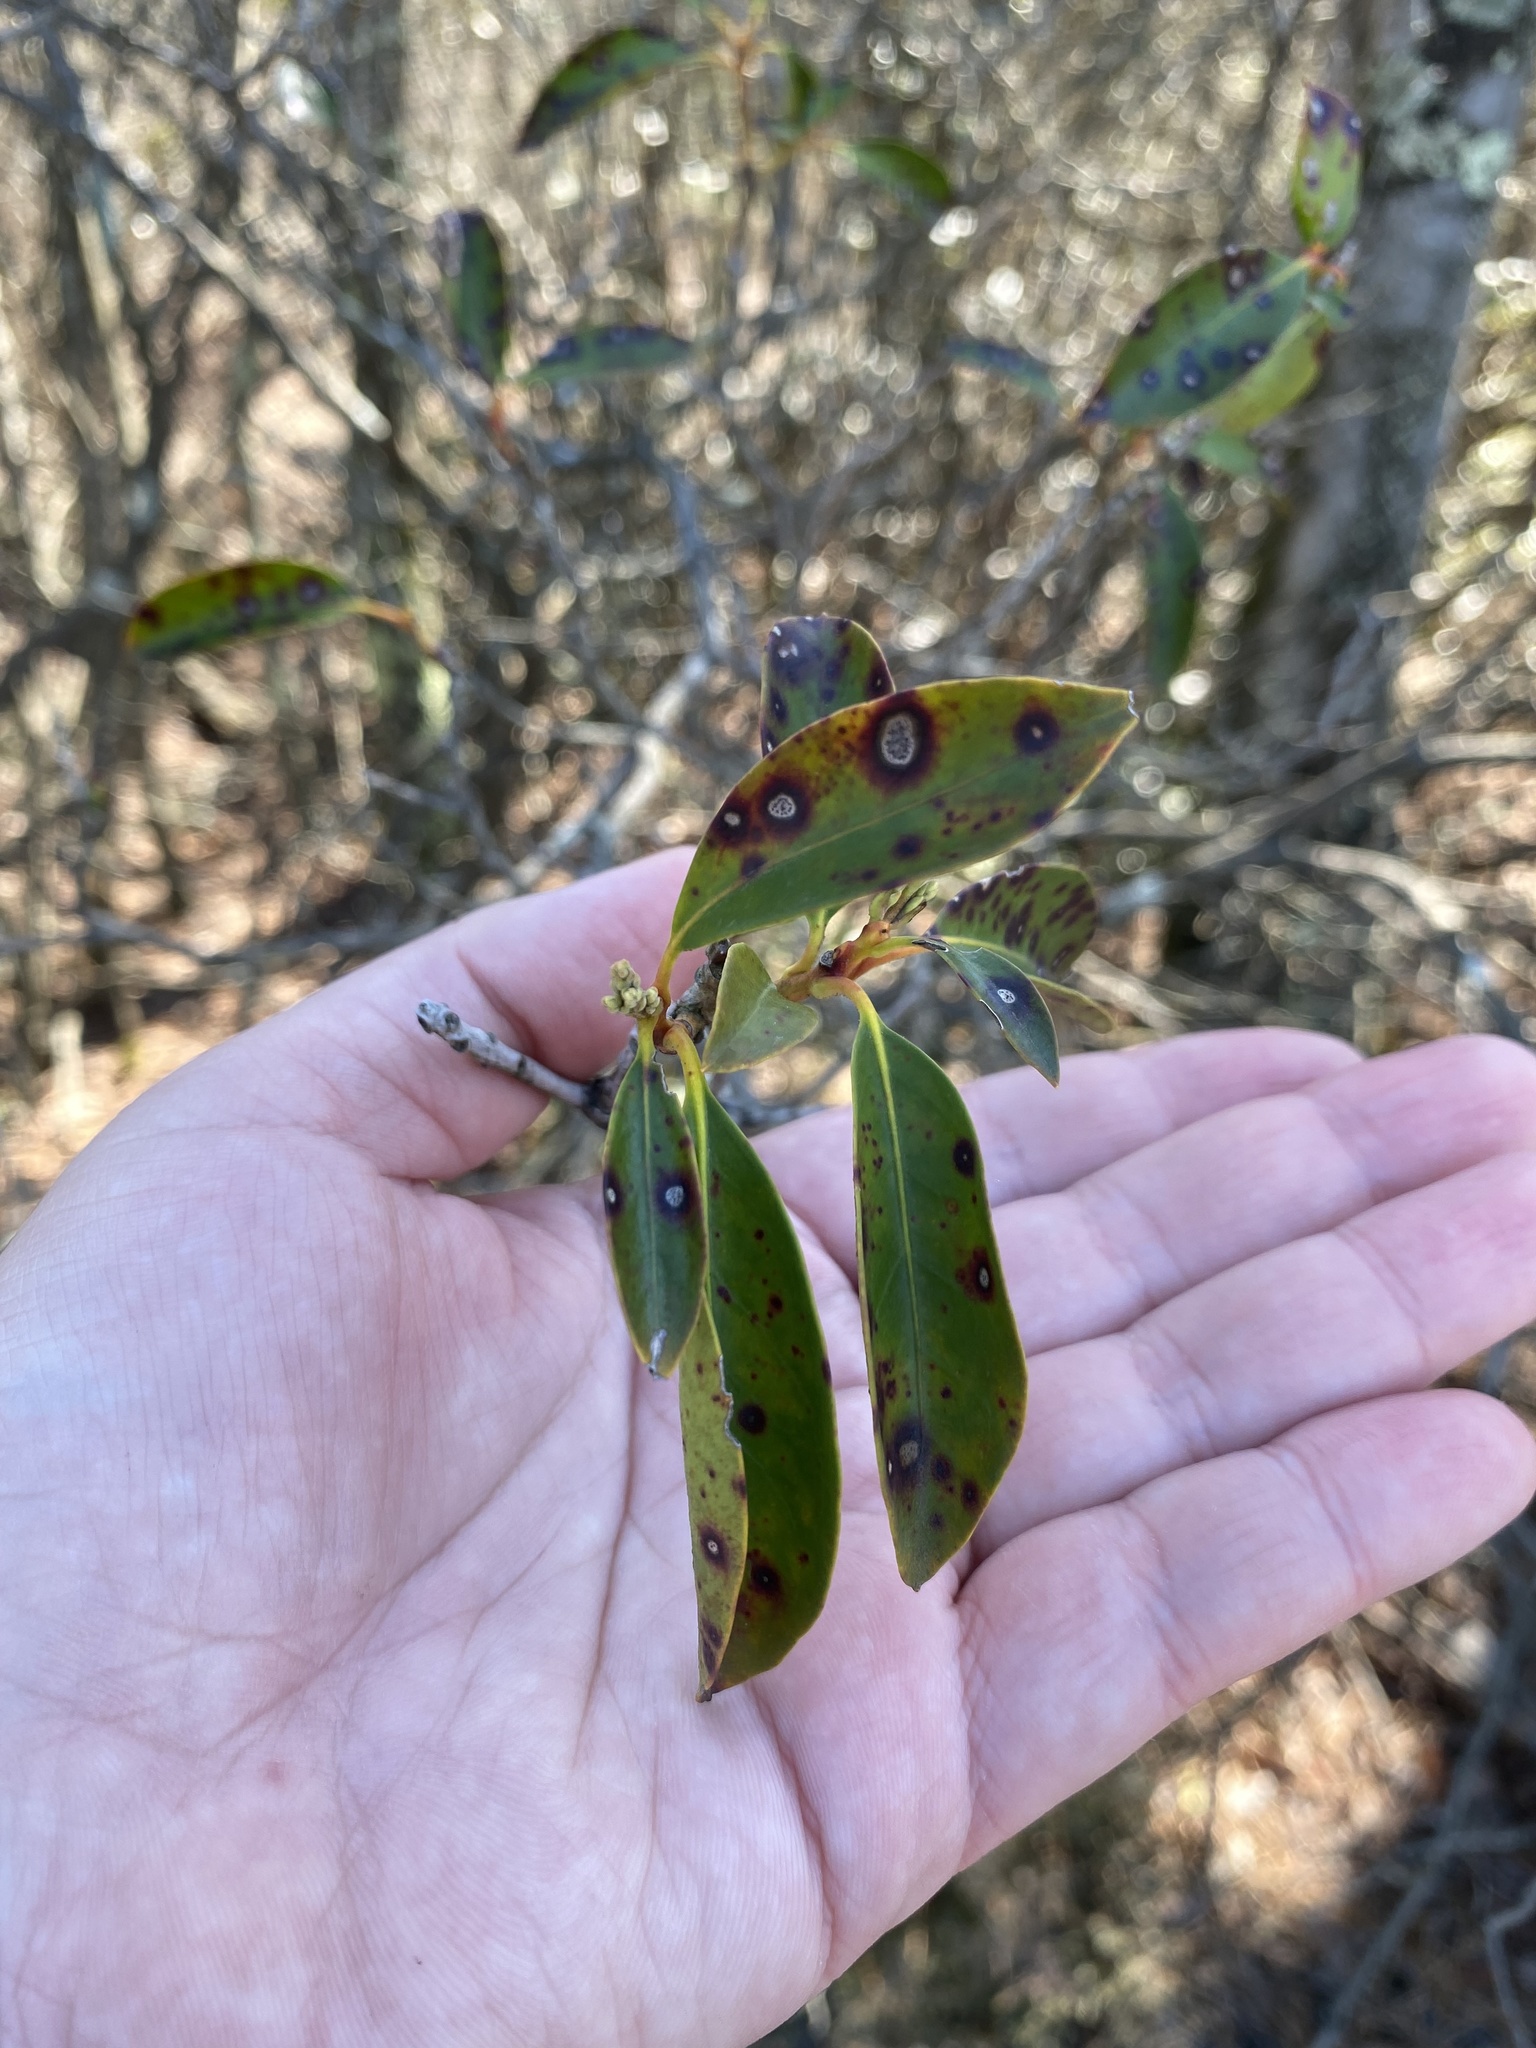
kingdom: Fungi
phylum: Ascomycota
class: Dothideomycetes
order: Mycosphaerellales
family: Mycosphaerellaceae
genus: Mycosphaerella
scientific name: Mycosphaerella colorata
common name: Mountain laurel leaf spot
